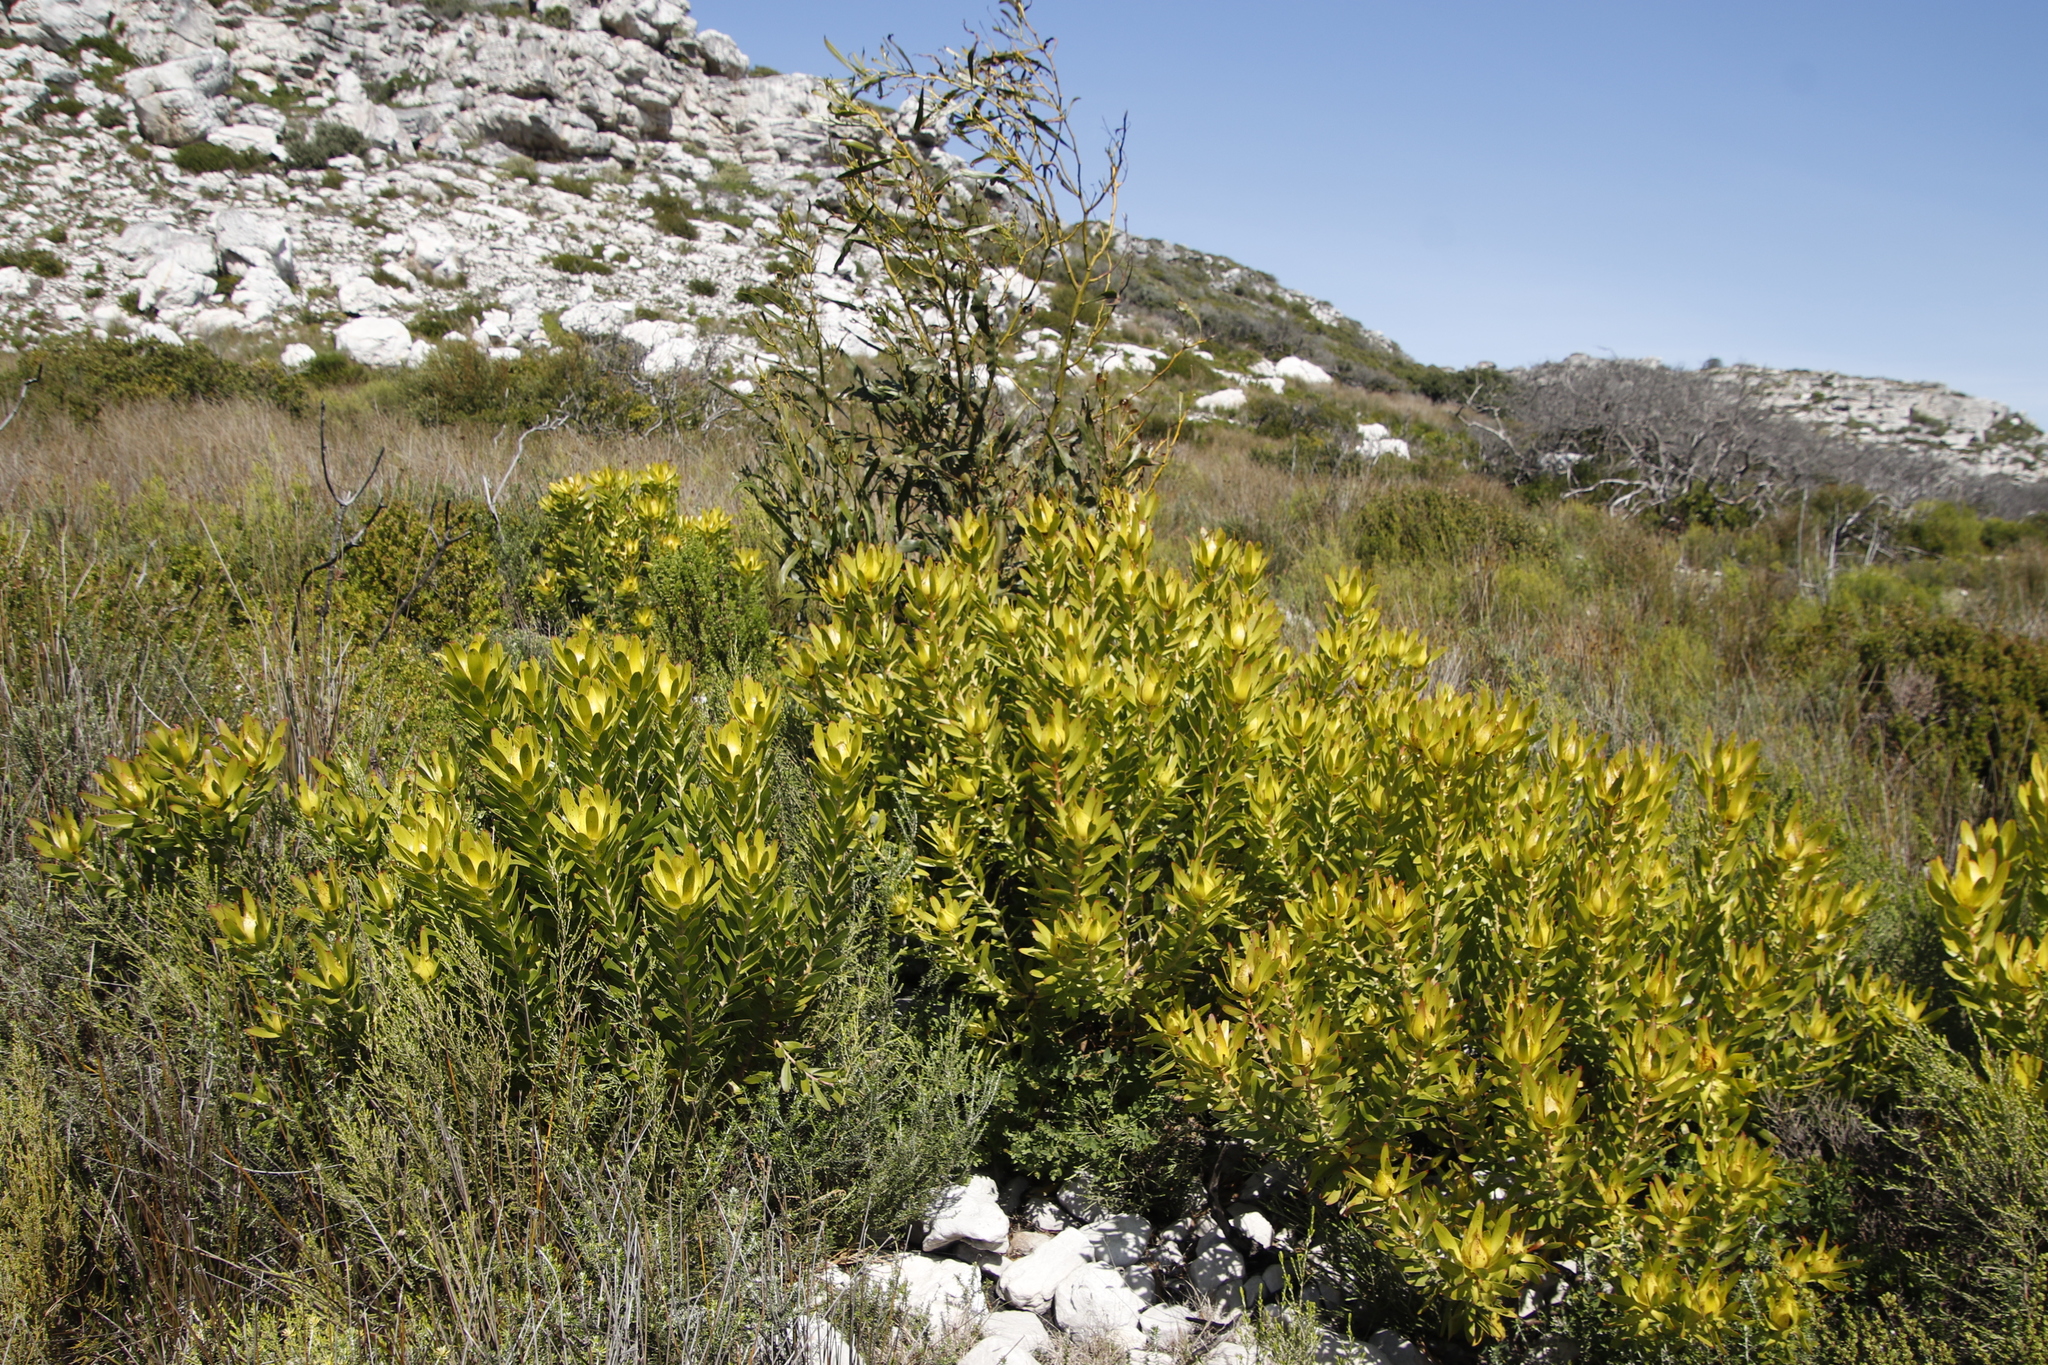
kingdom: Plantae
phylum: Tracheophyta
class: Magnoliopsida
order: Proteales
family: Proteaceae
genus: Leucadendron
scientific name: Leucadendron laureolum
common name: Golden sunshinebush
